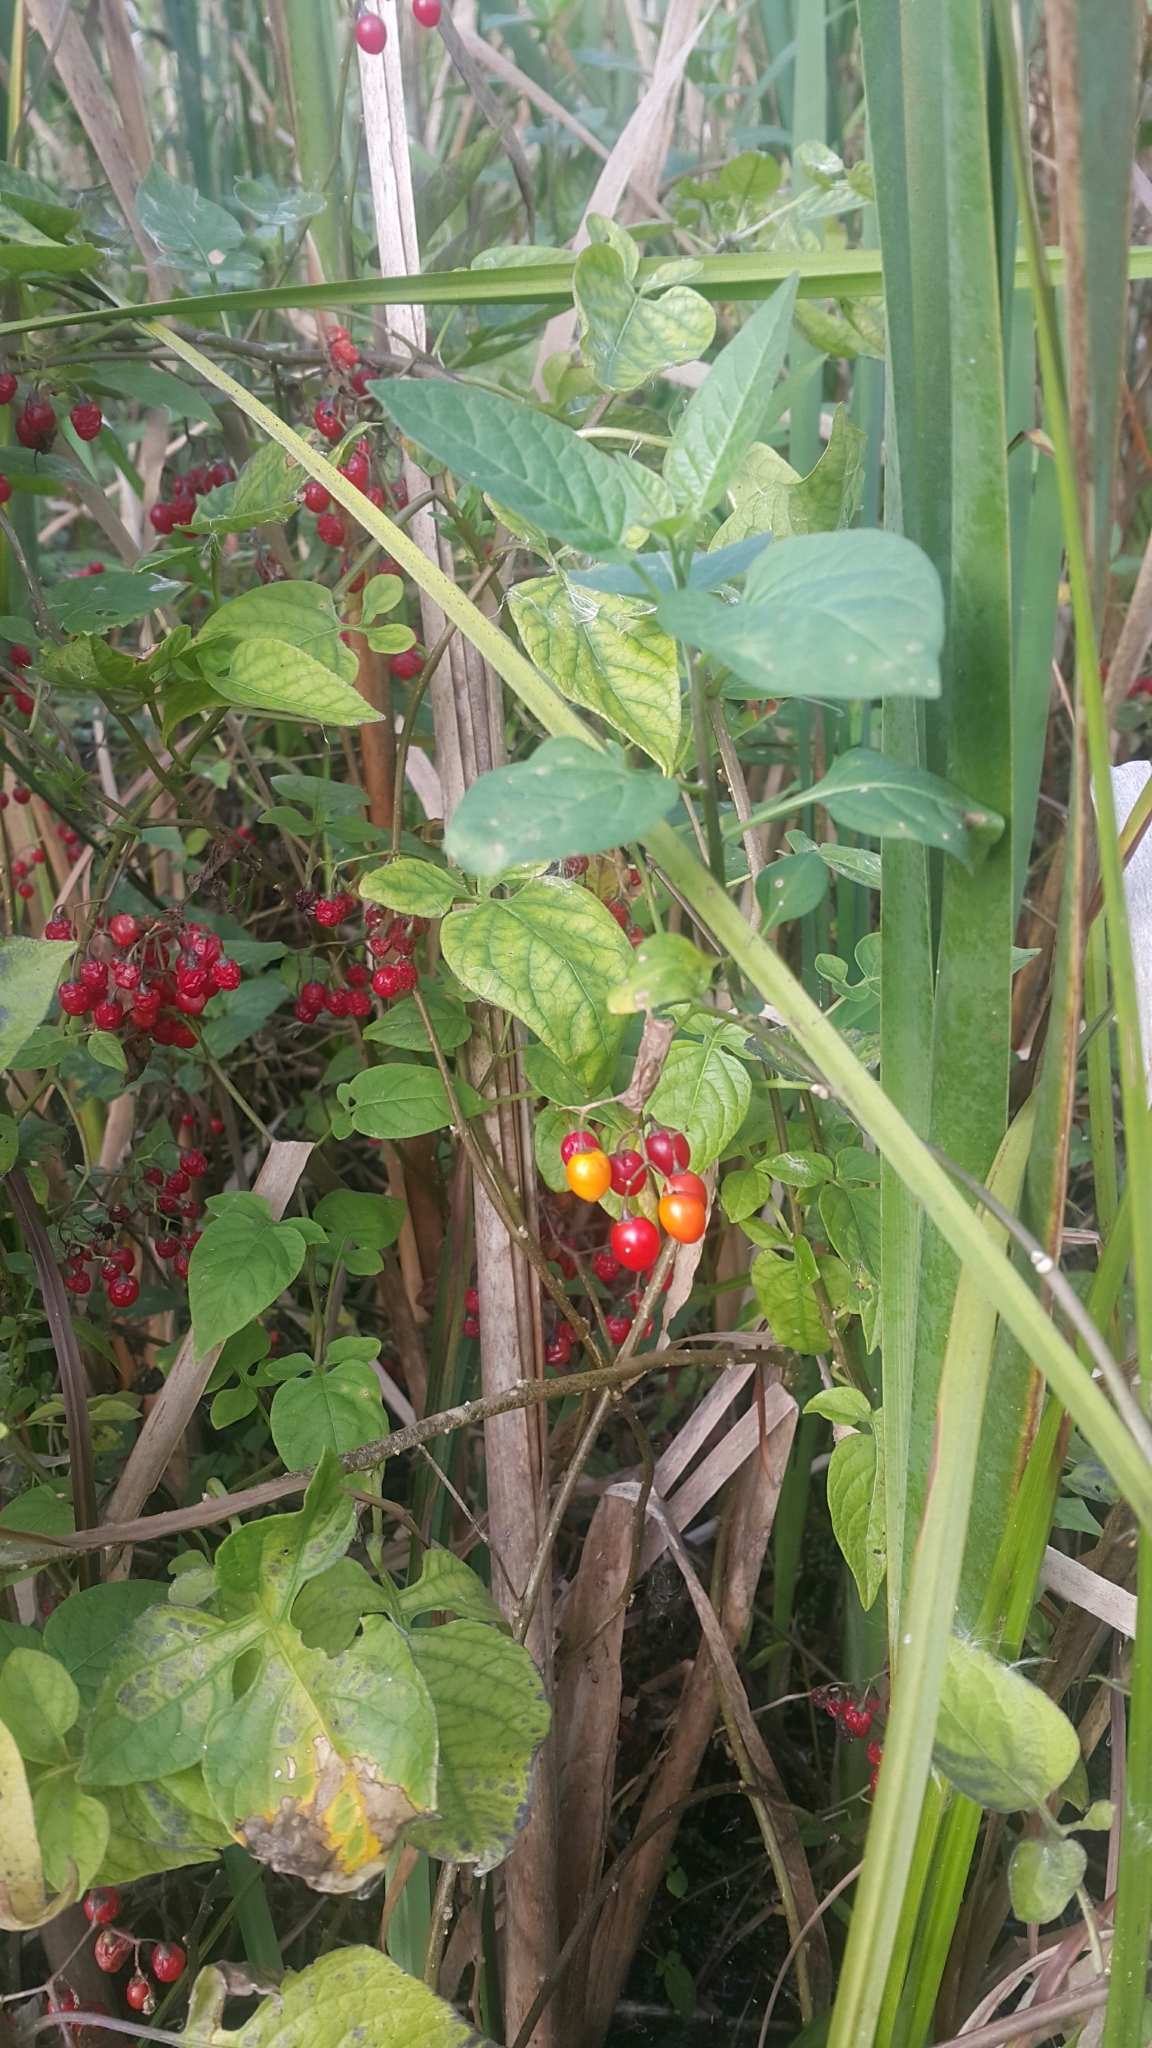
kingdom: Plantae
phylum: Tracheophyta
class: Magnoliopsida
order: Solanales
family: Solanaceae
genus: Solanum
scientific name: Solanum dulcamara
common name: Climbing nightshade
